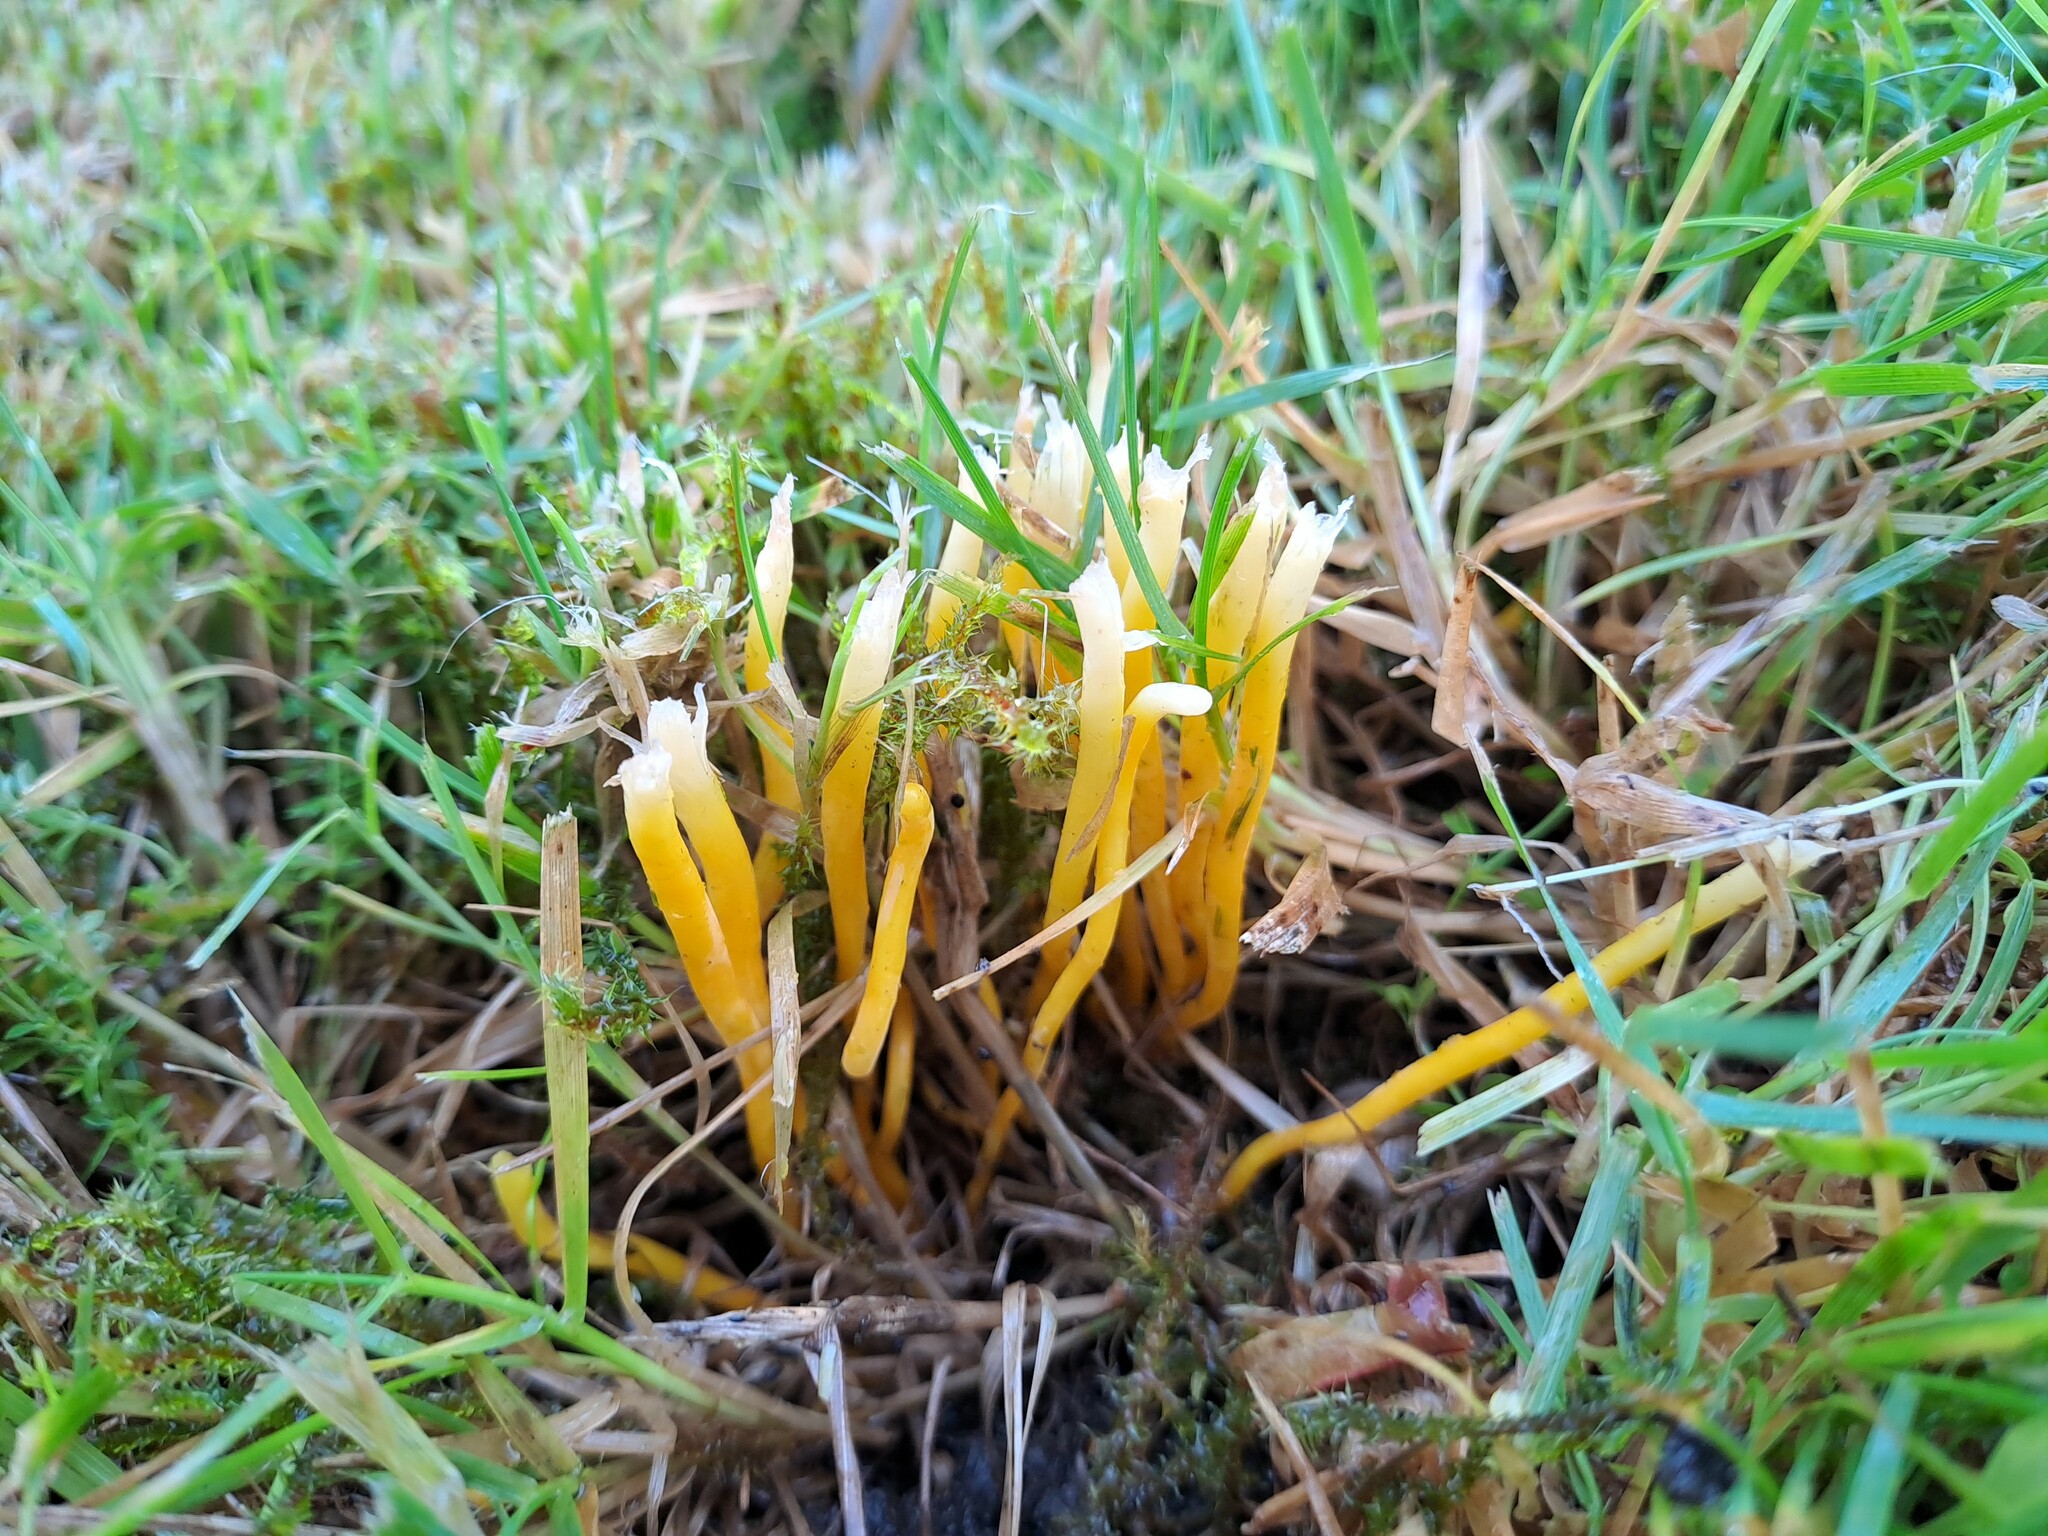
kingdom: Fungi
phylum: Basidiomycota
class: Agaricomycetes
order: Agaricales
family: Clavariaceae
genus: Clavulinopsis
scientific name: Clavulinopsis helvola
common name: Yellow club
